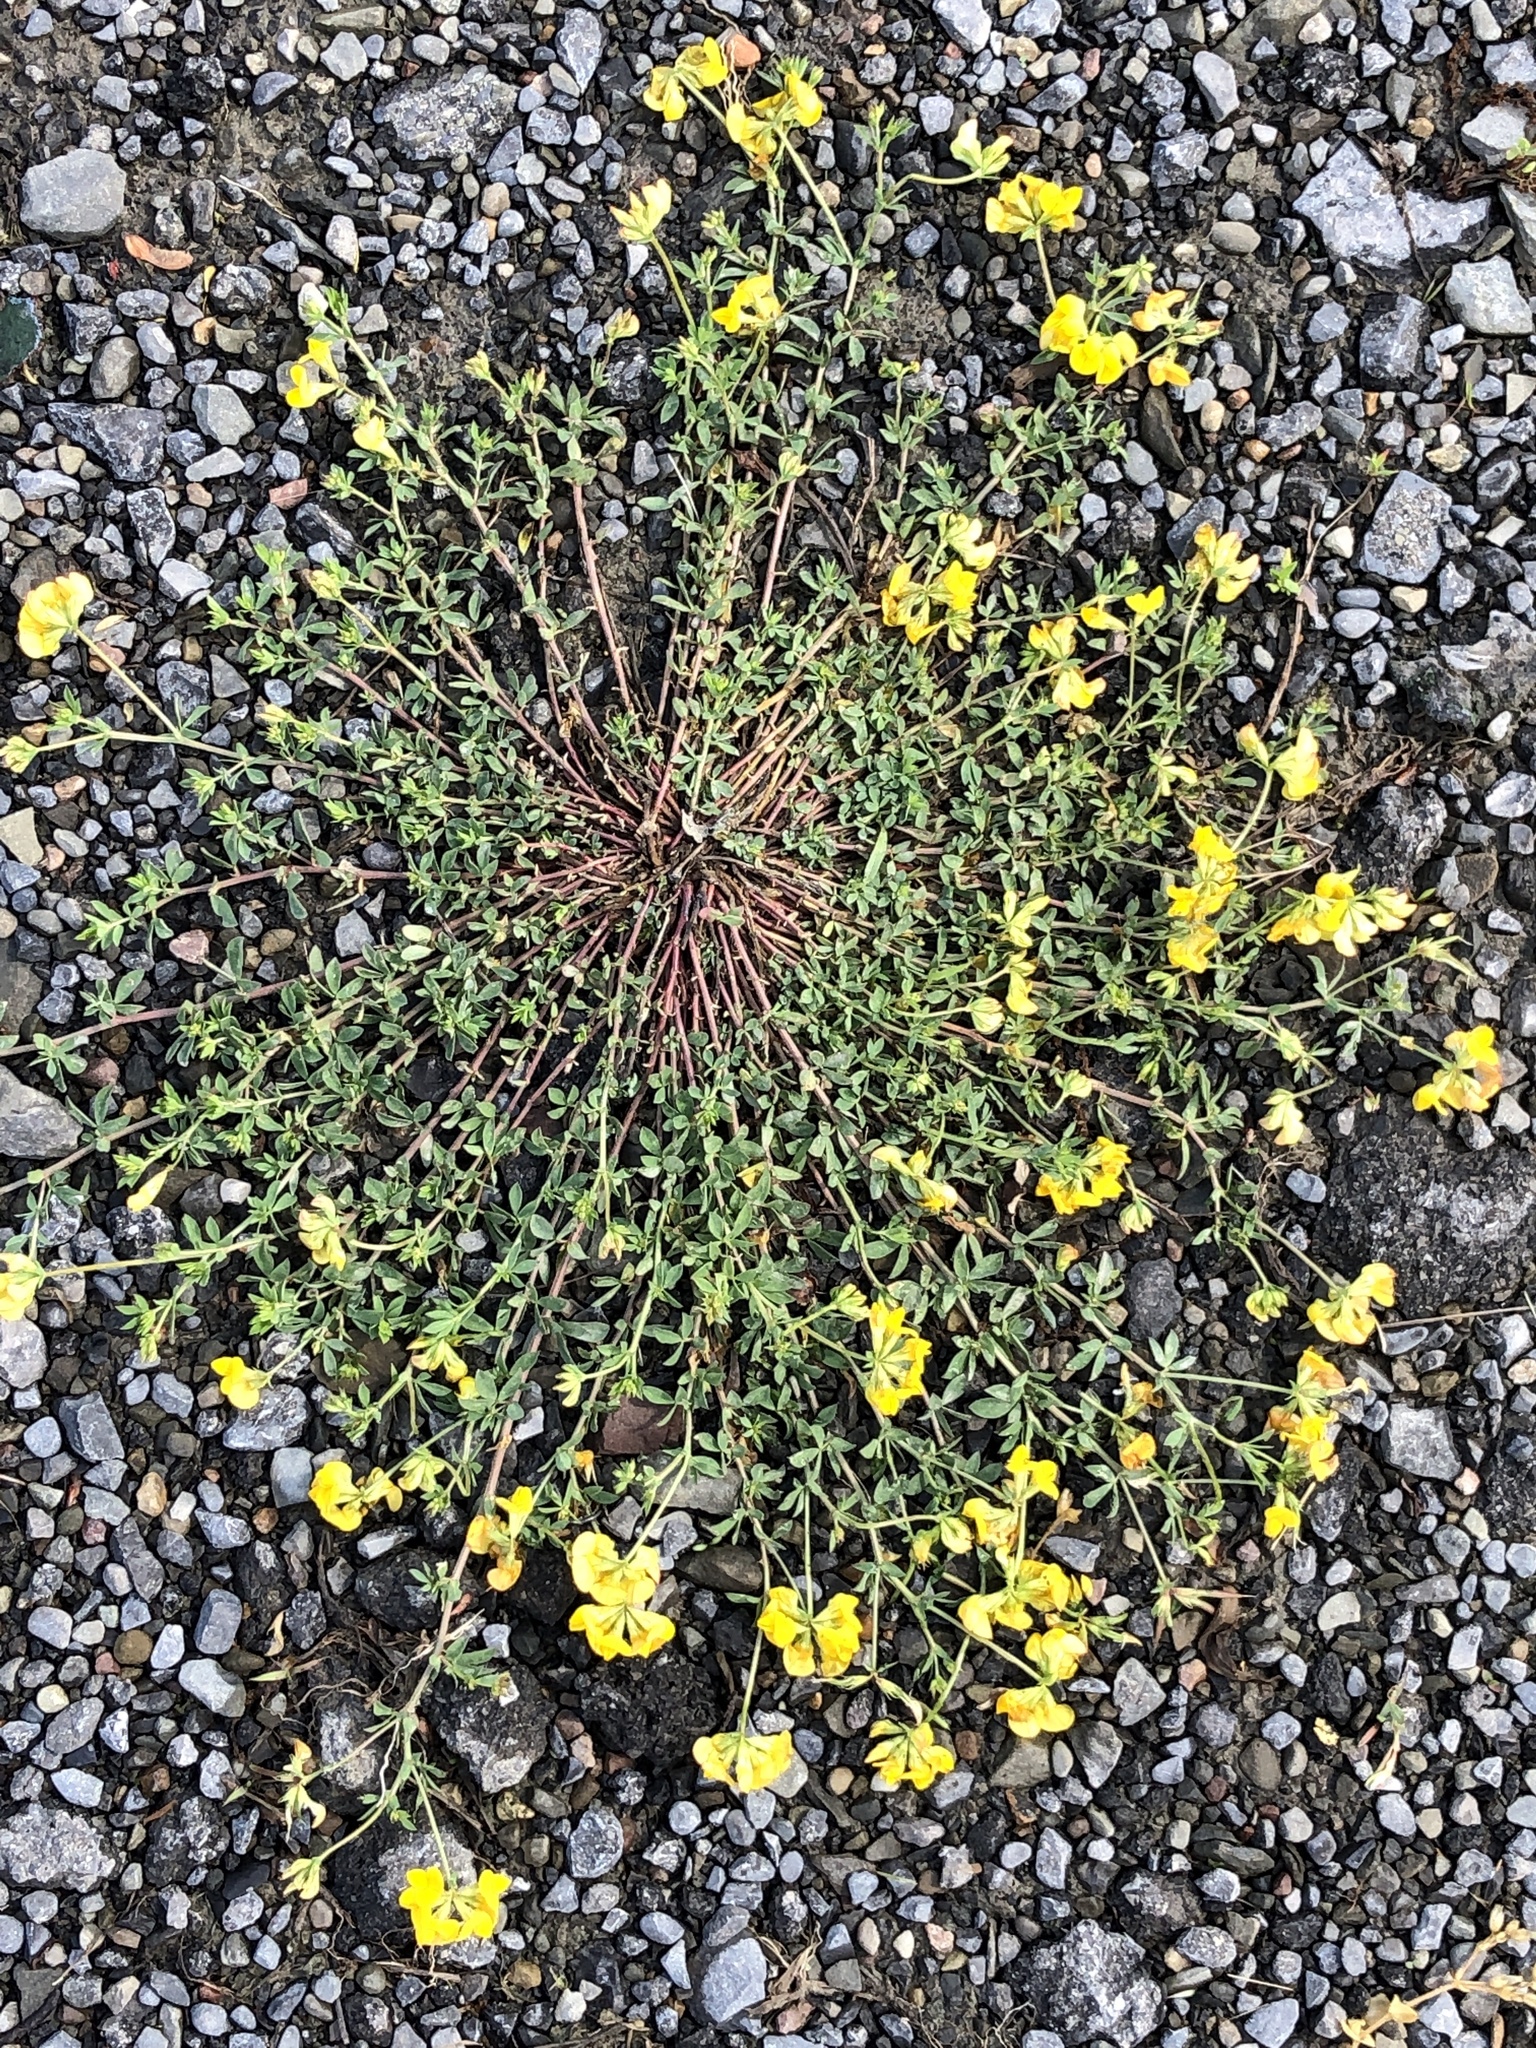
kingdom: Plantae
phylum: Tracheophyta
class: Magnoliopsida
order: Fabales
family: Fabaceae
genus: Lotus
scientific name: Lotus
